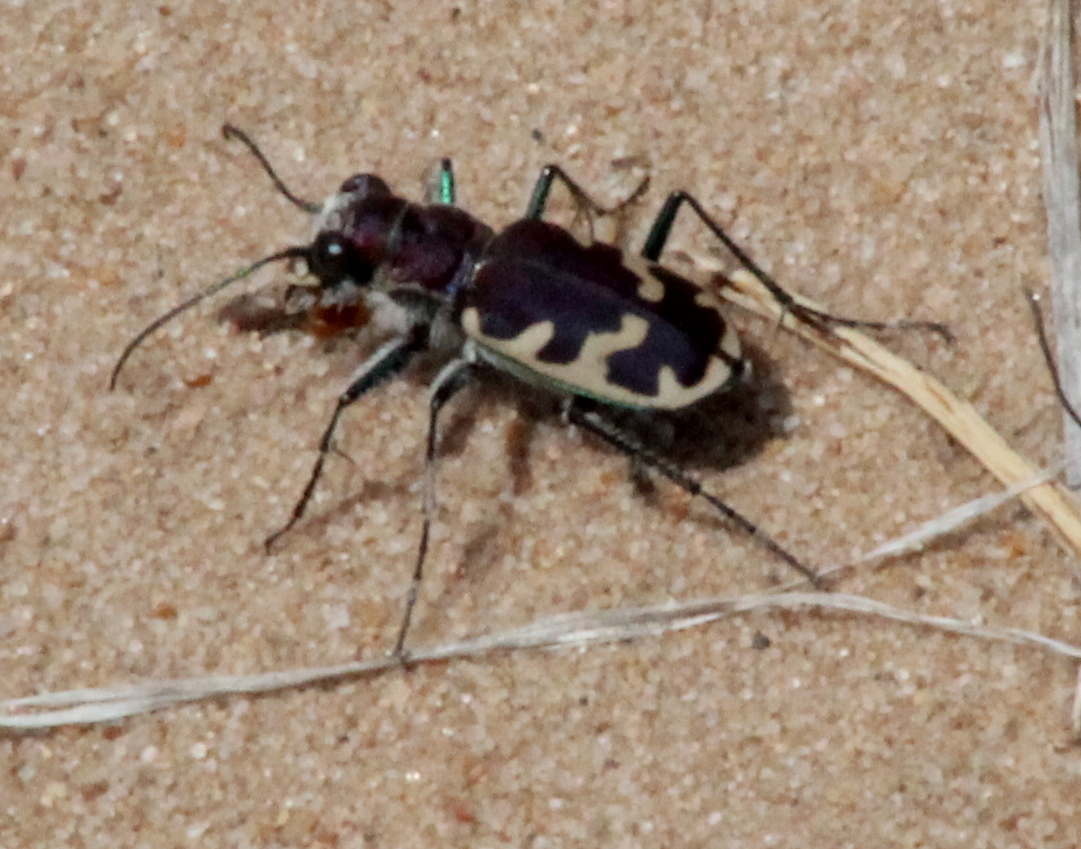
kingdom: Animalia
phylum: Arthropoda
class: Insecta
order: Coleoptera
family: Carabidae
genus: Cicindela
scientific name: Cicindela formosa
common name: Big sand tiger beetle
